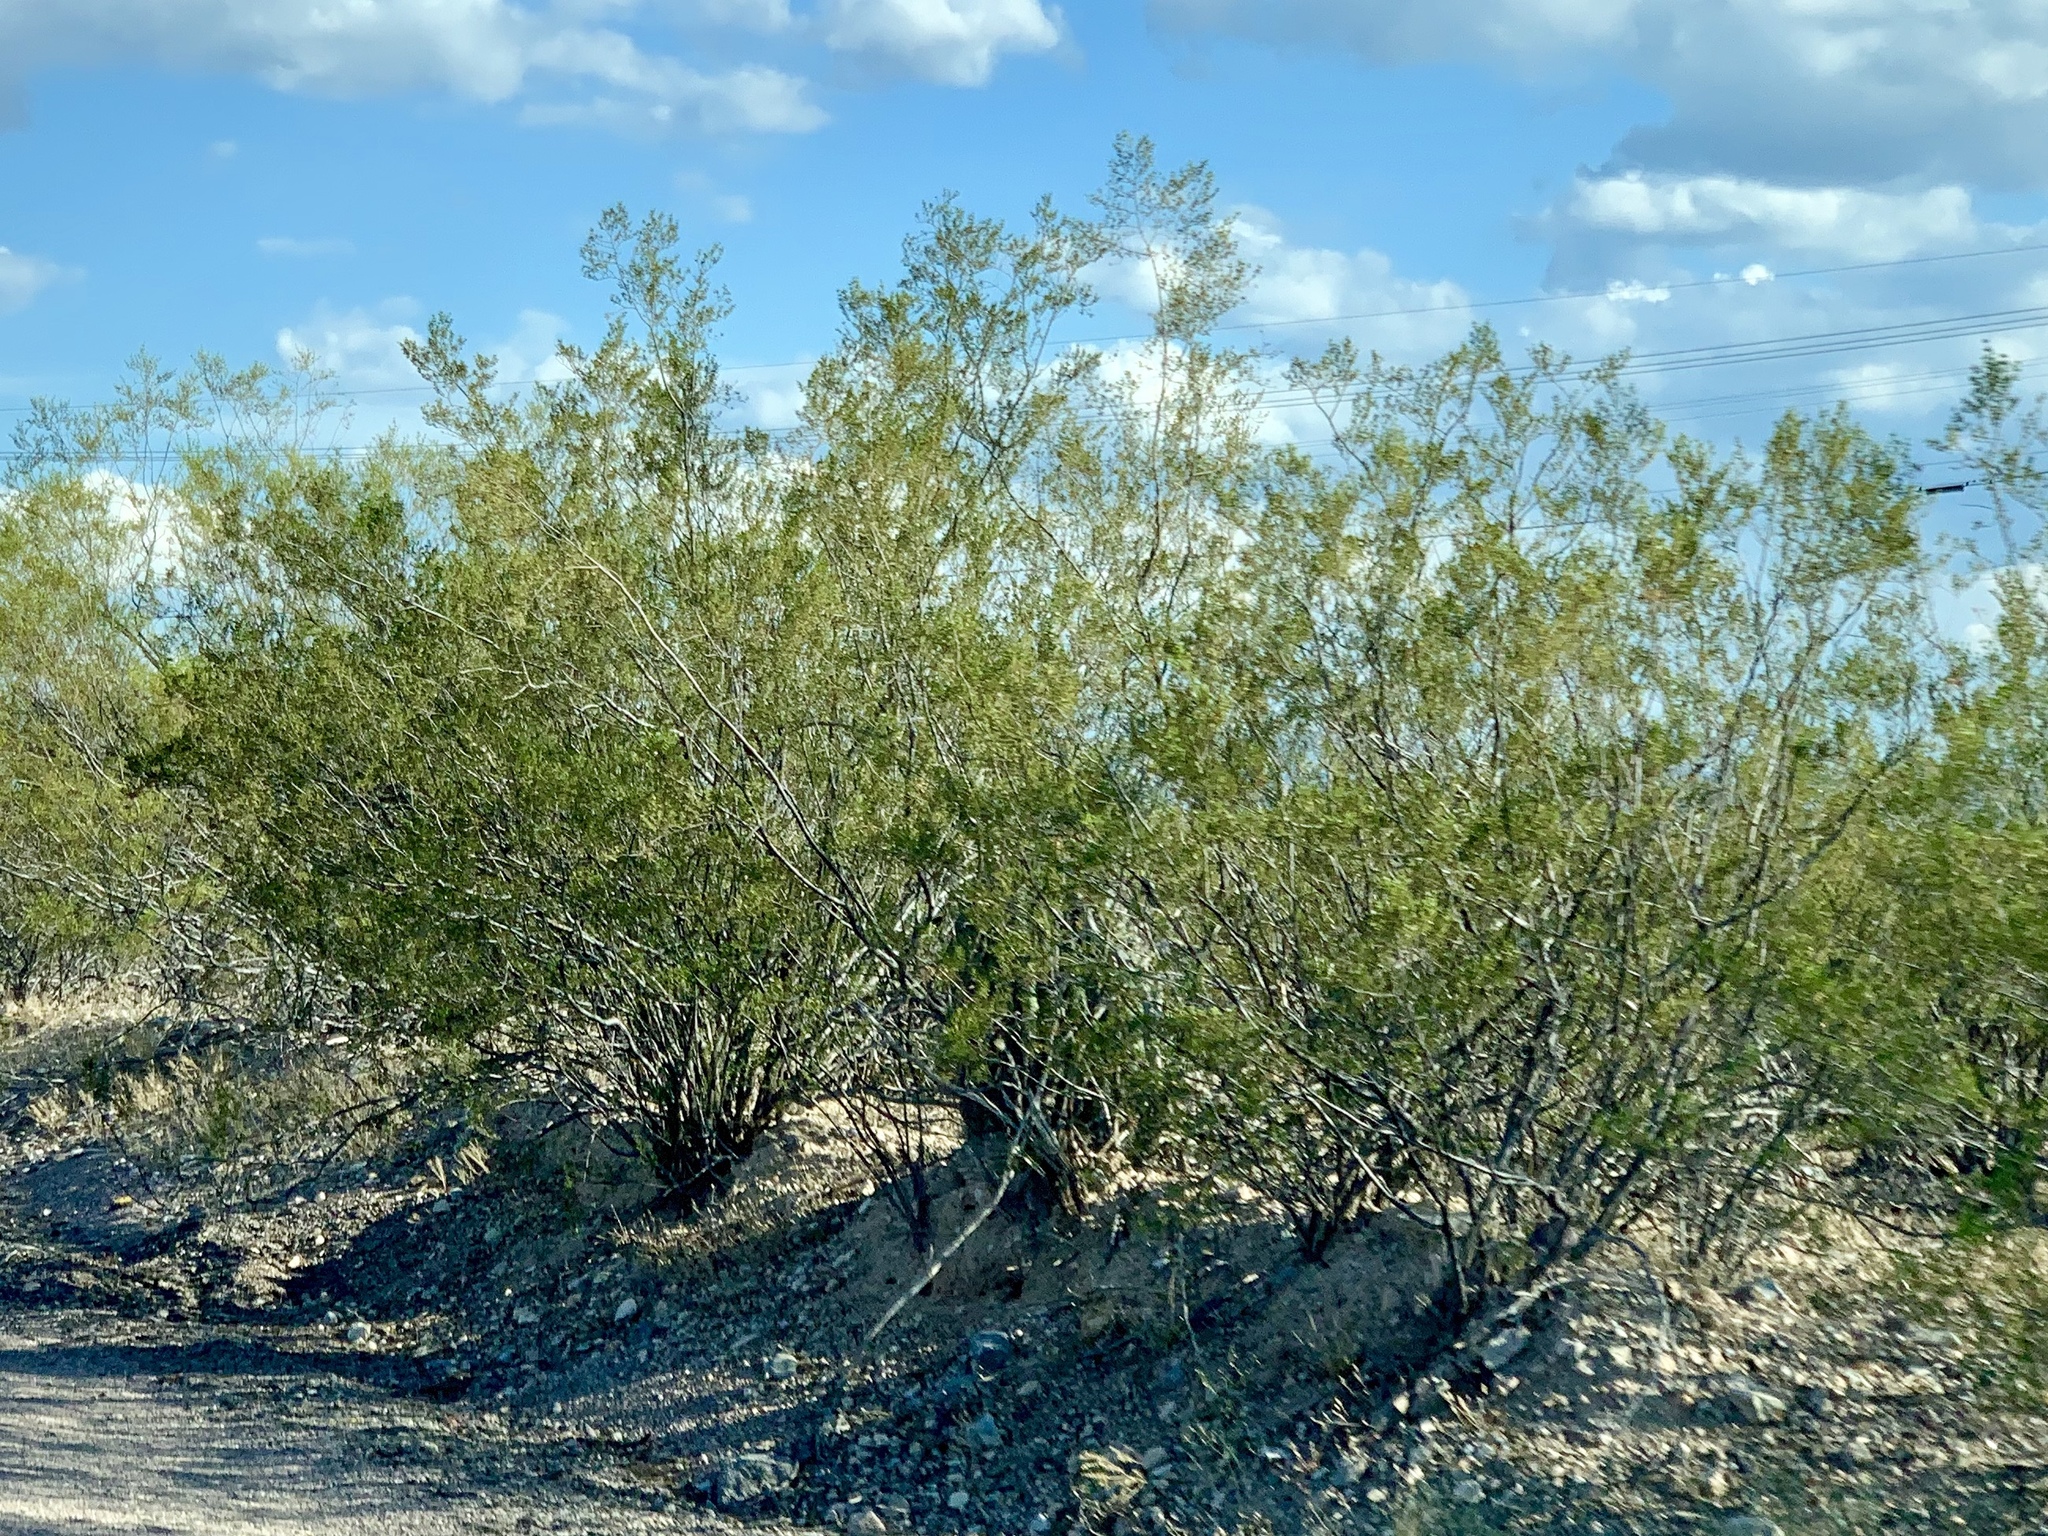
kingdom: Plantae
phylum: Tracheophyta
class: Magnoliopsida
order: Zygophyllales
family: Zygophyllaceae
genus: Larrea
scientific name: Larrea tridentata
